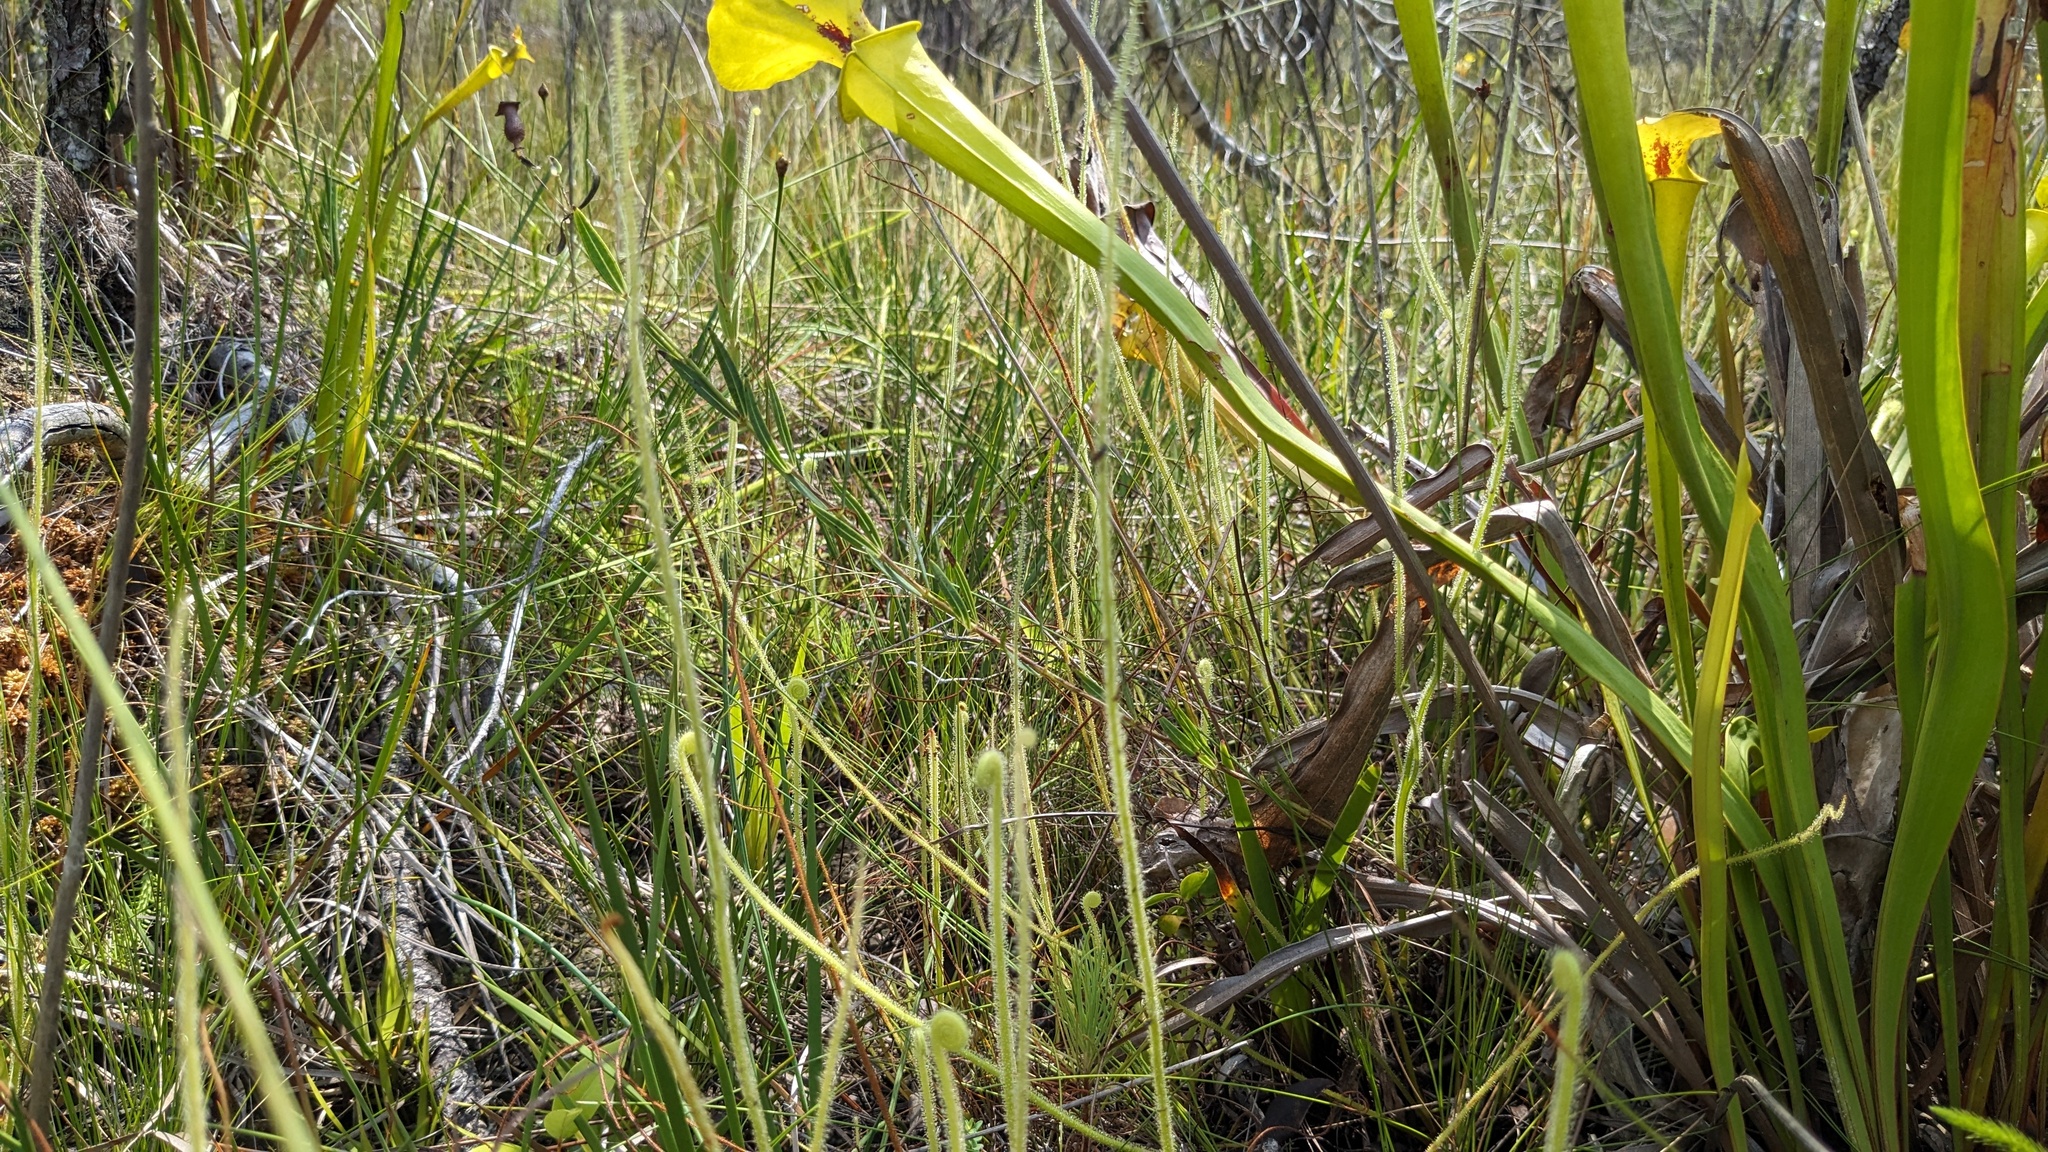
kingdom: Plantae
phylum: Tracheophyta
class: Magnoliopsida
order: Caryophyllales
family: Droseraceae
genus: Drosera
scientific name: Drosera filiformis
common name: Dew-thread
